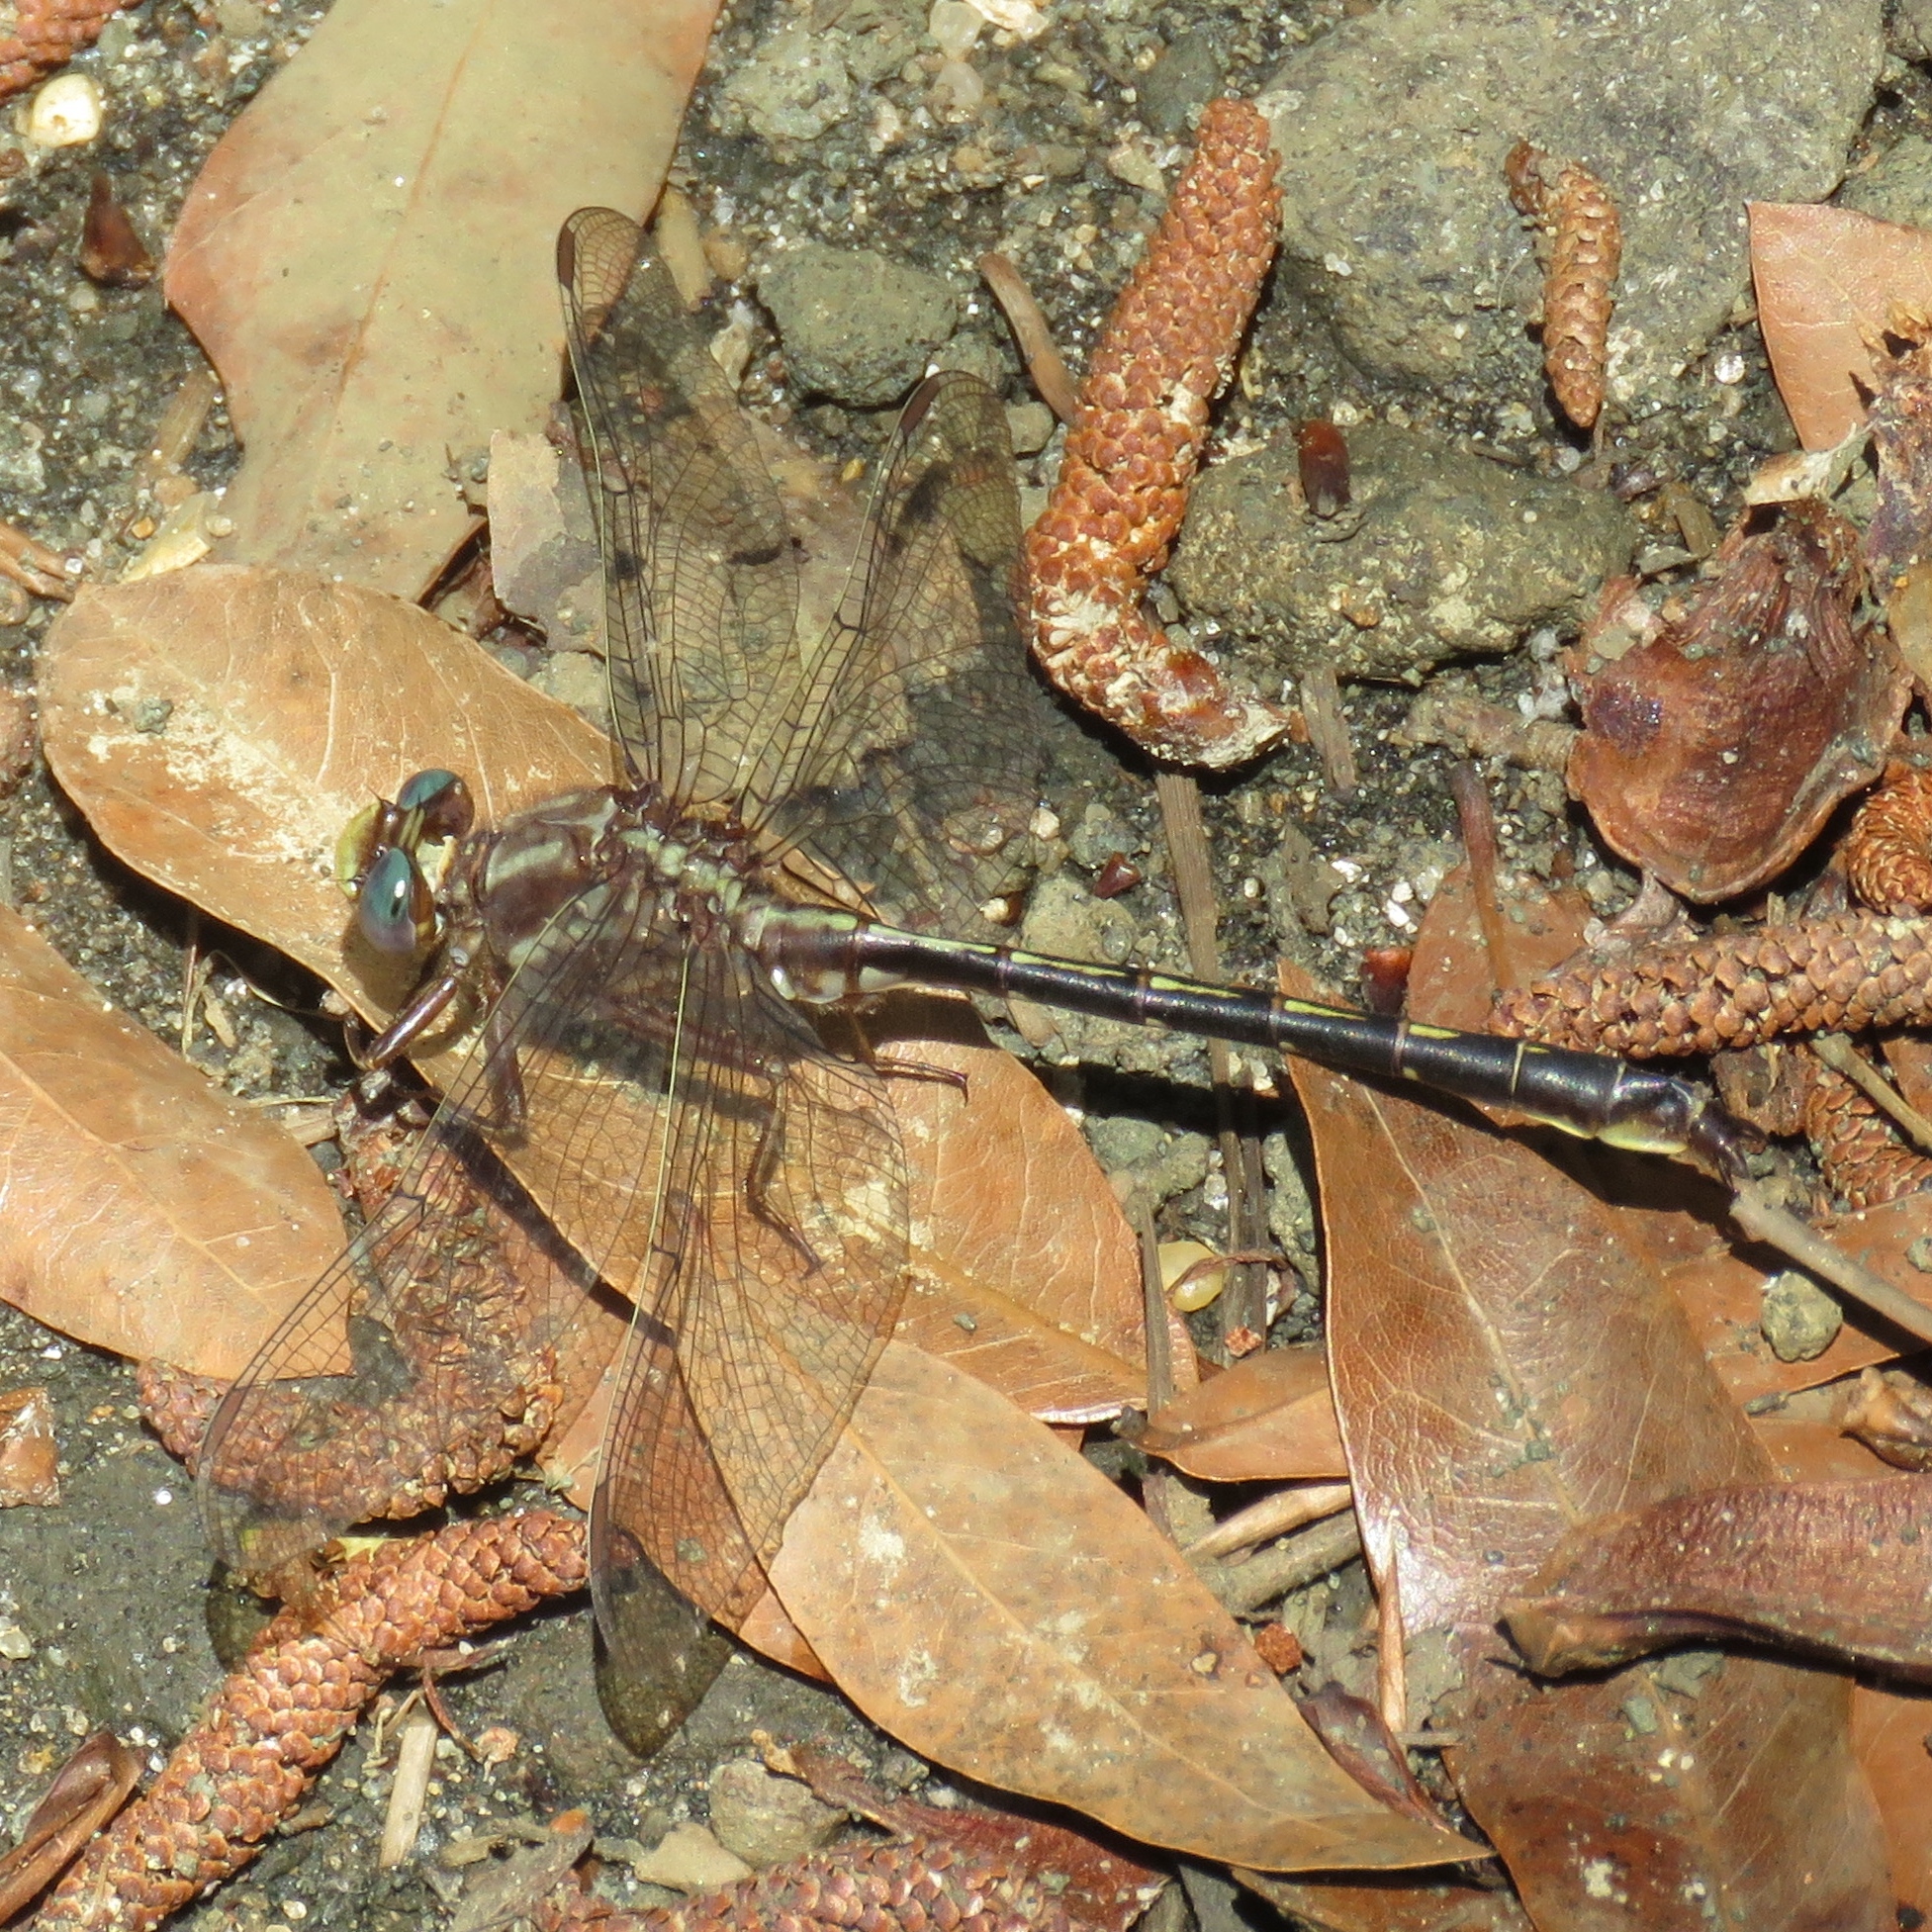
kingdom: Animalia
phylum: Arthropoda
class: Insecta
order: Odonata
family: Gomphidae
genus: Phanogomphus
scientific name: Phanogomphus lividus
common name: Ashy clubtail
